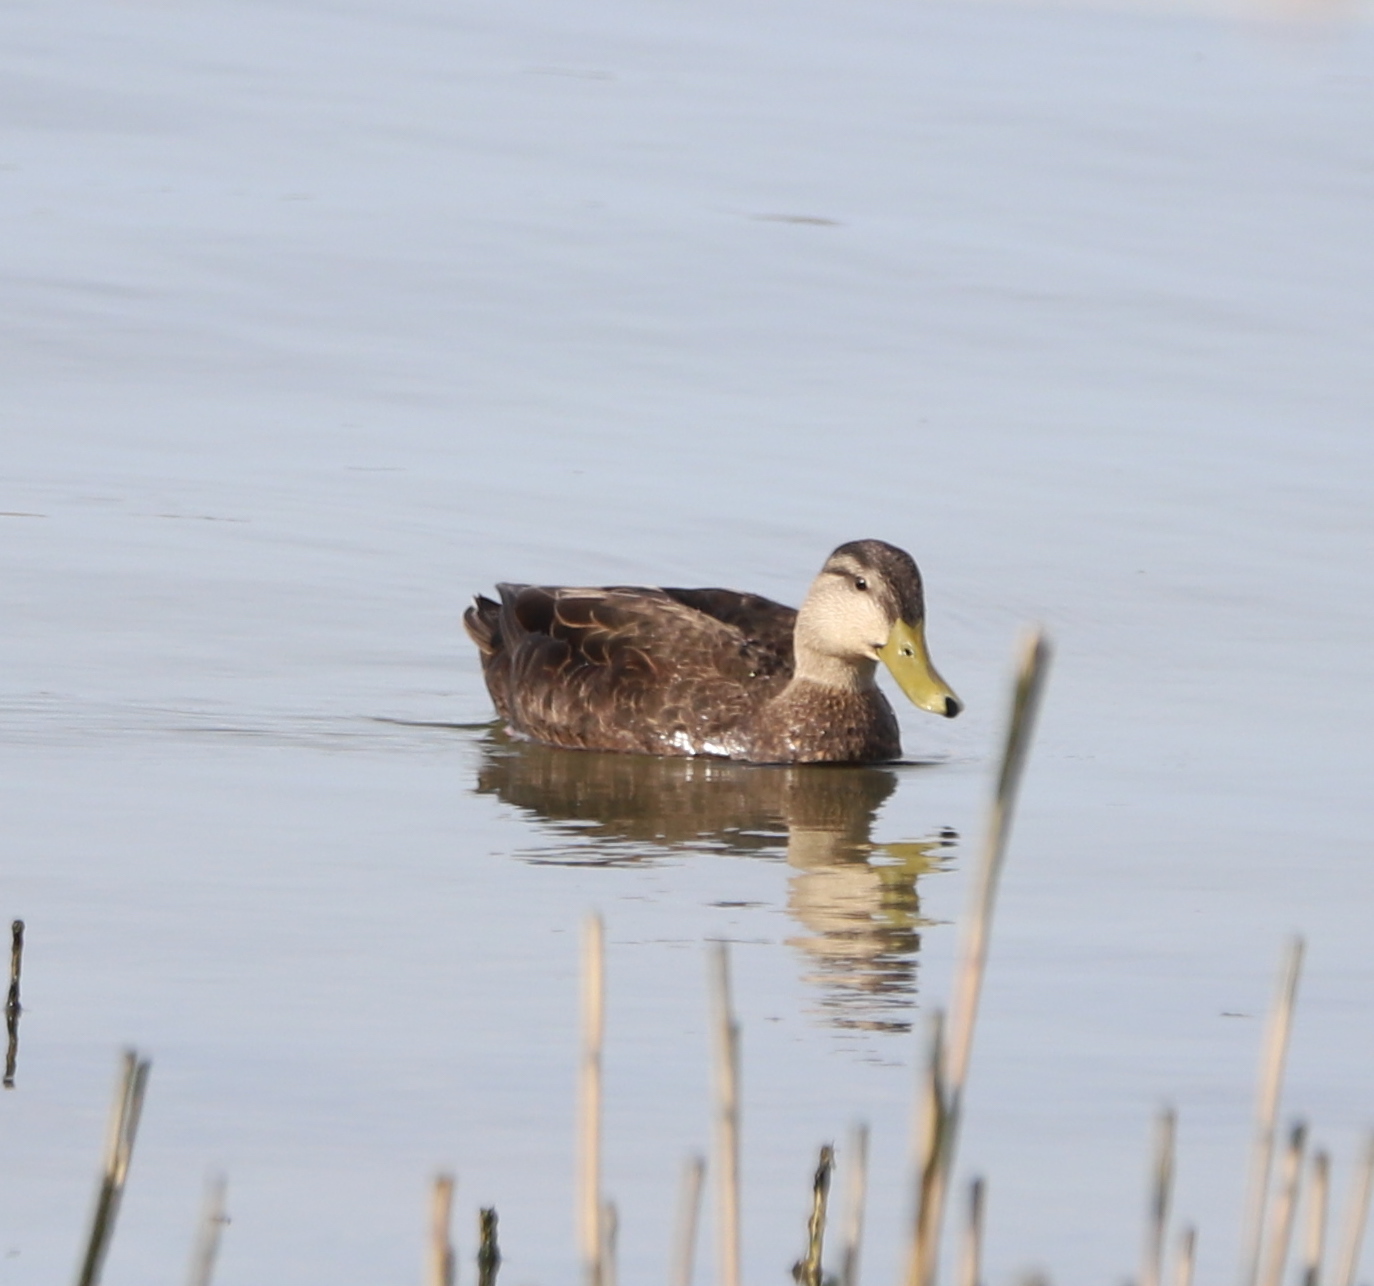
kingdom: Animalia
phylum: Chordata
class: Aves
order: Anseriformes
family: Anatidae
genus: Anas
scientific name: Anas rubripes
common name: American black duck
